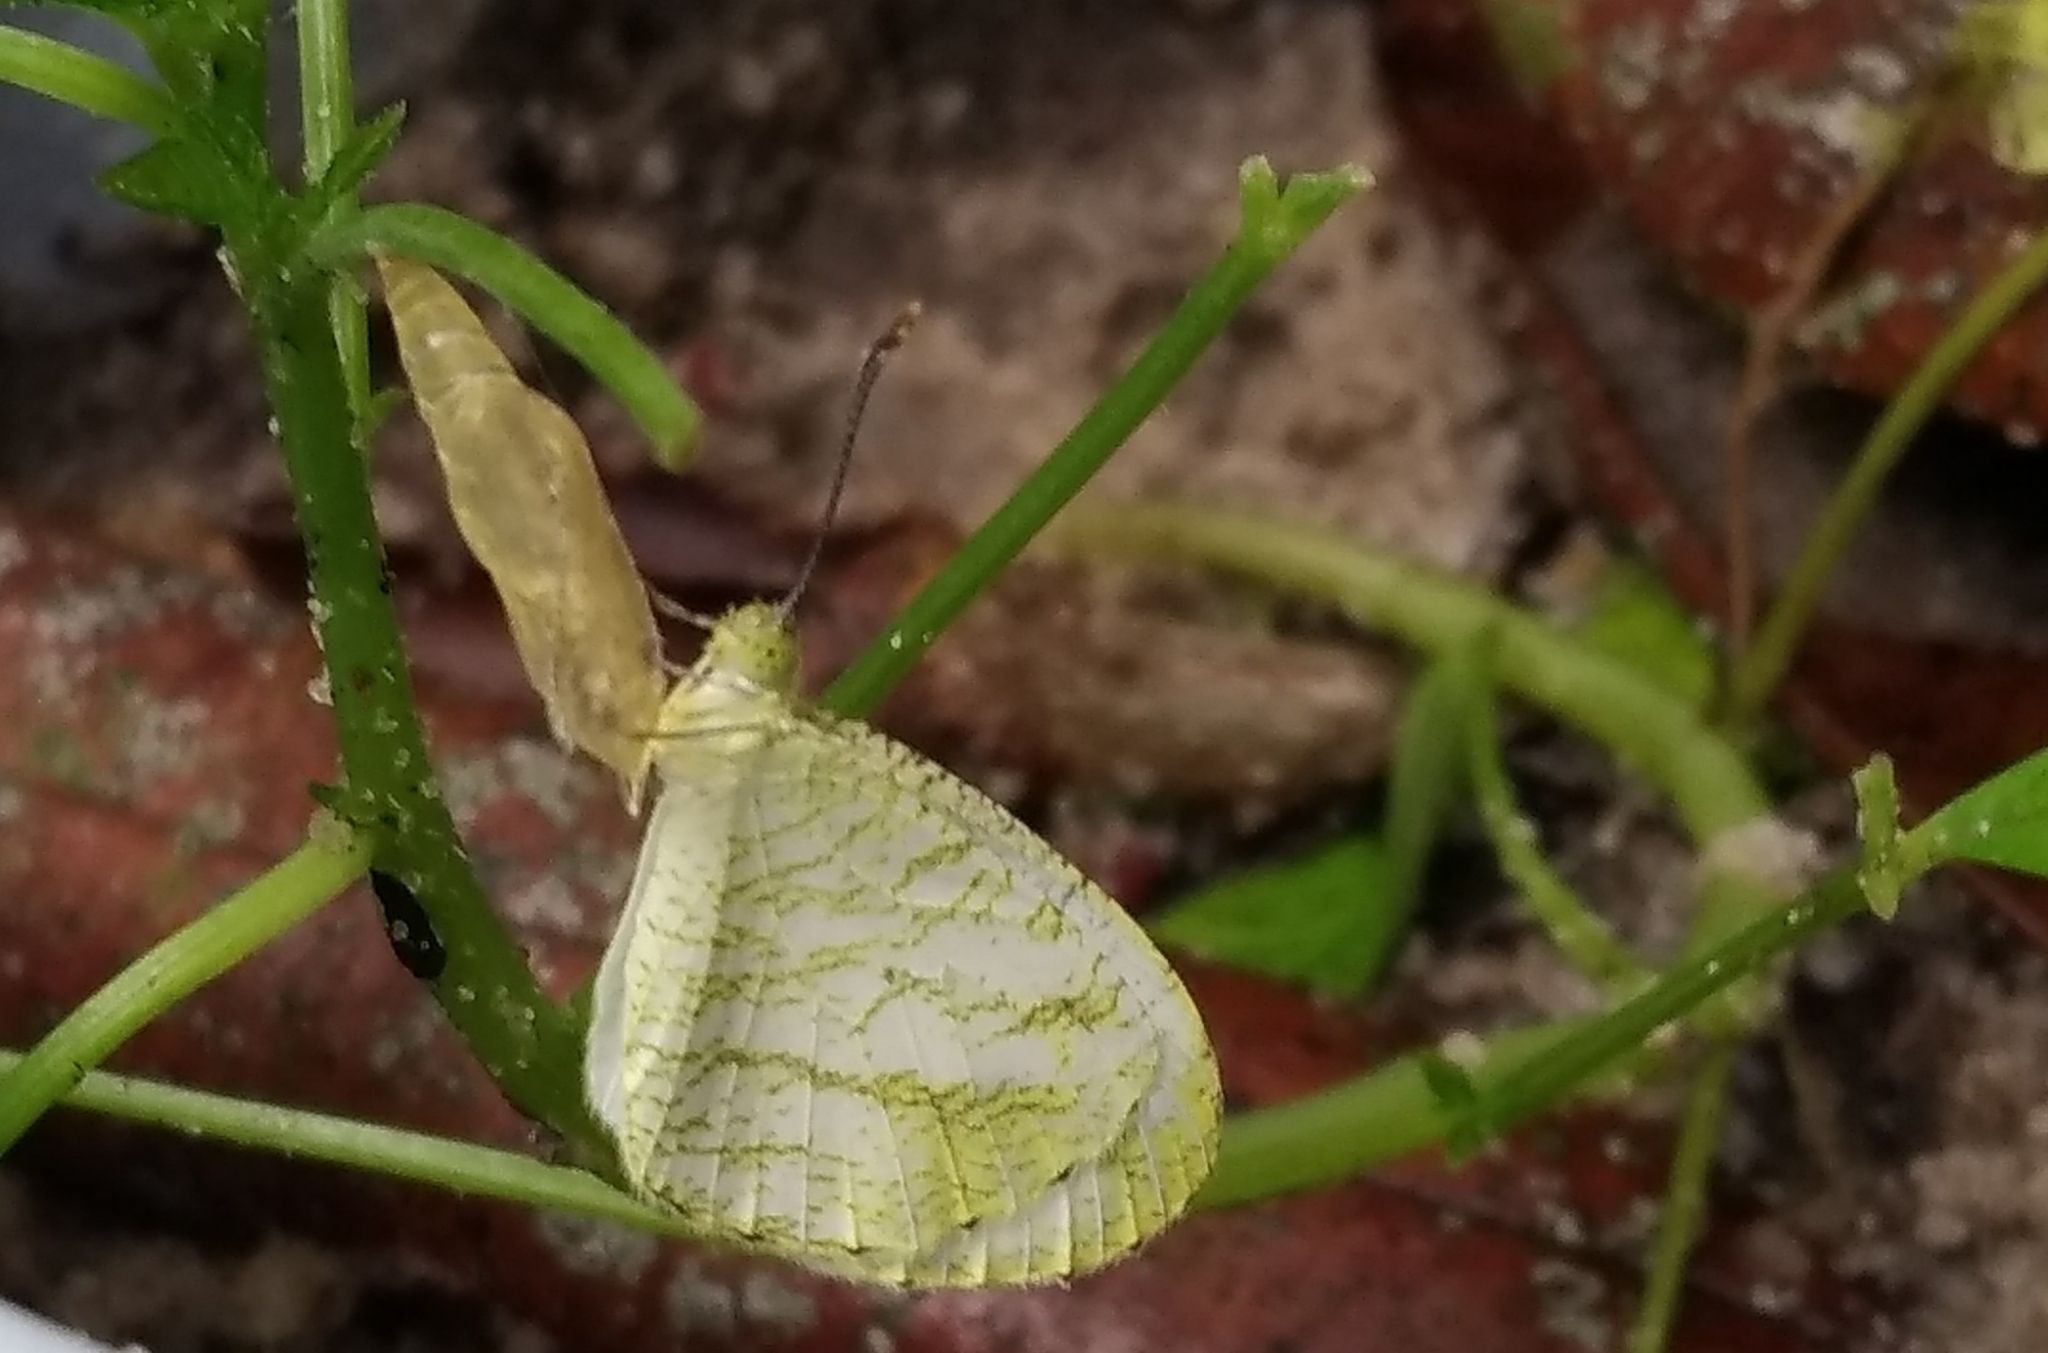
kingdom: Animalia
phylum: Arthropoda
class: Insecta
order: Lepidoptera
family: Pieridae
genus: Leptosia
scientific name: Leptosia nina
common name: Psyche
